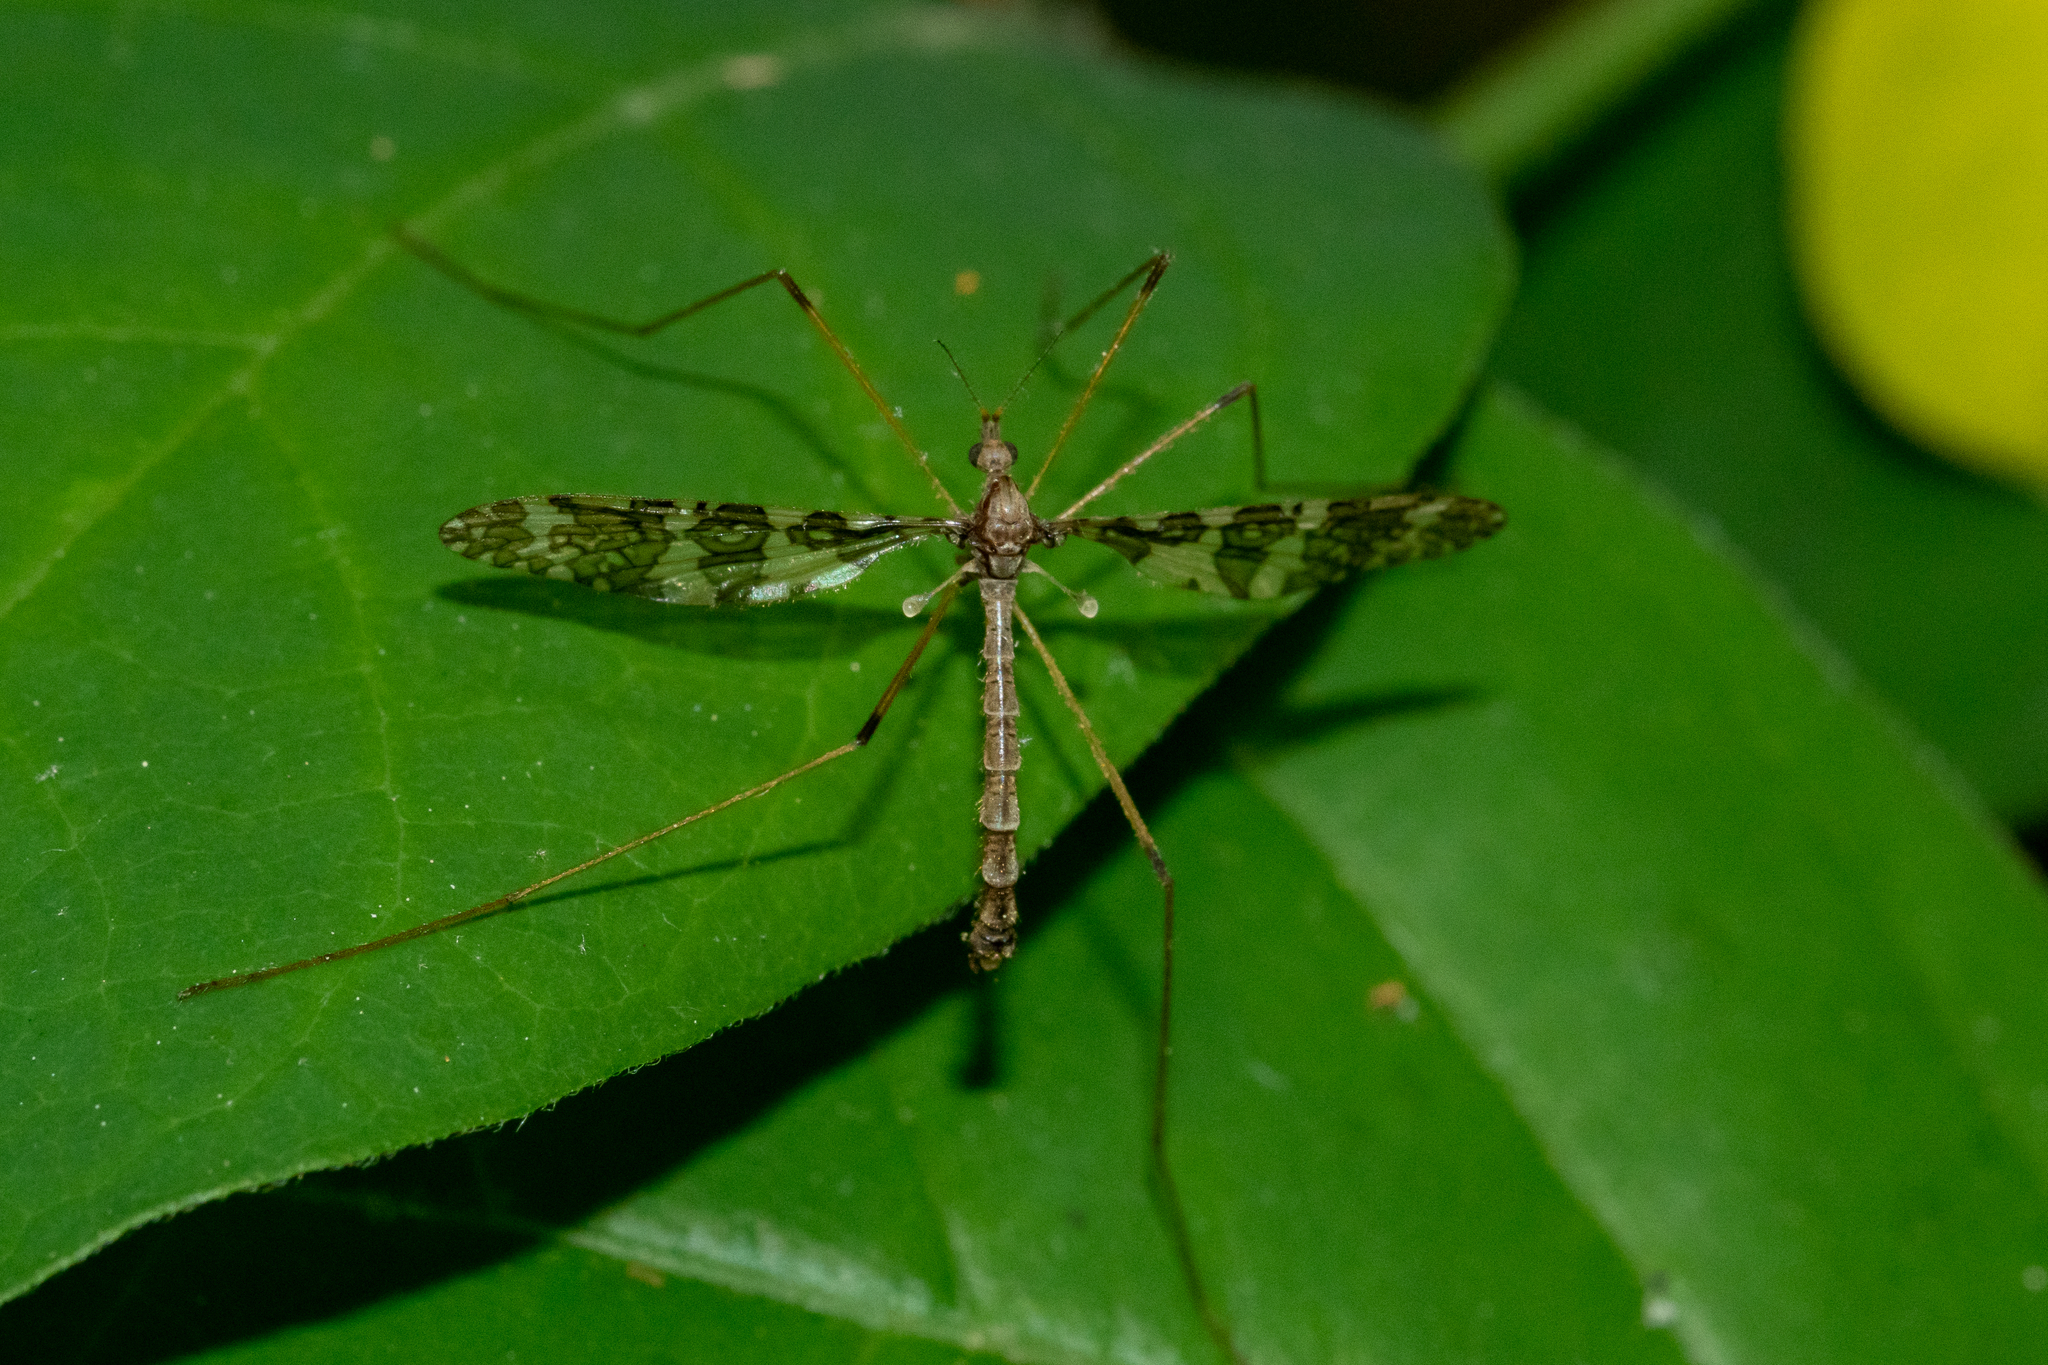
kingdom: Animalia
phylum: Arthropoda
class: Insecta
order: Diptera
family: Limoniidae
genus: Epiphragma
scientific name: Epiphragma fasciapenne
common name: Band-winged crane fly
